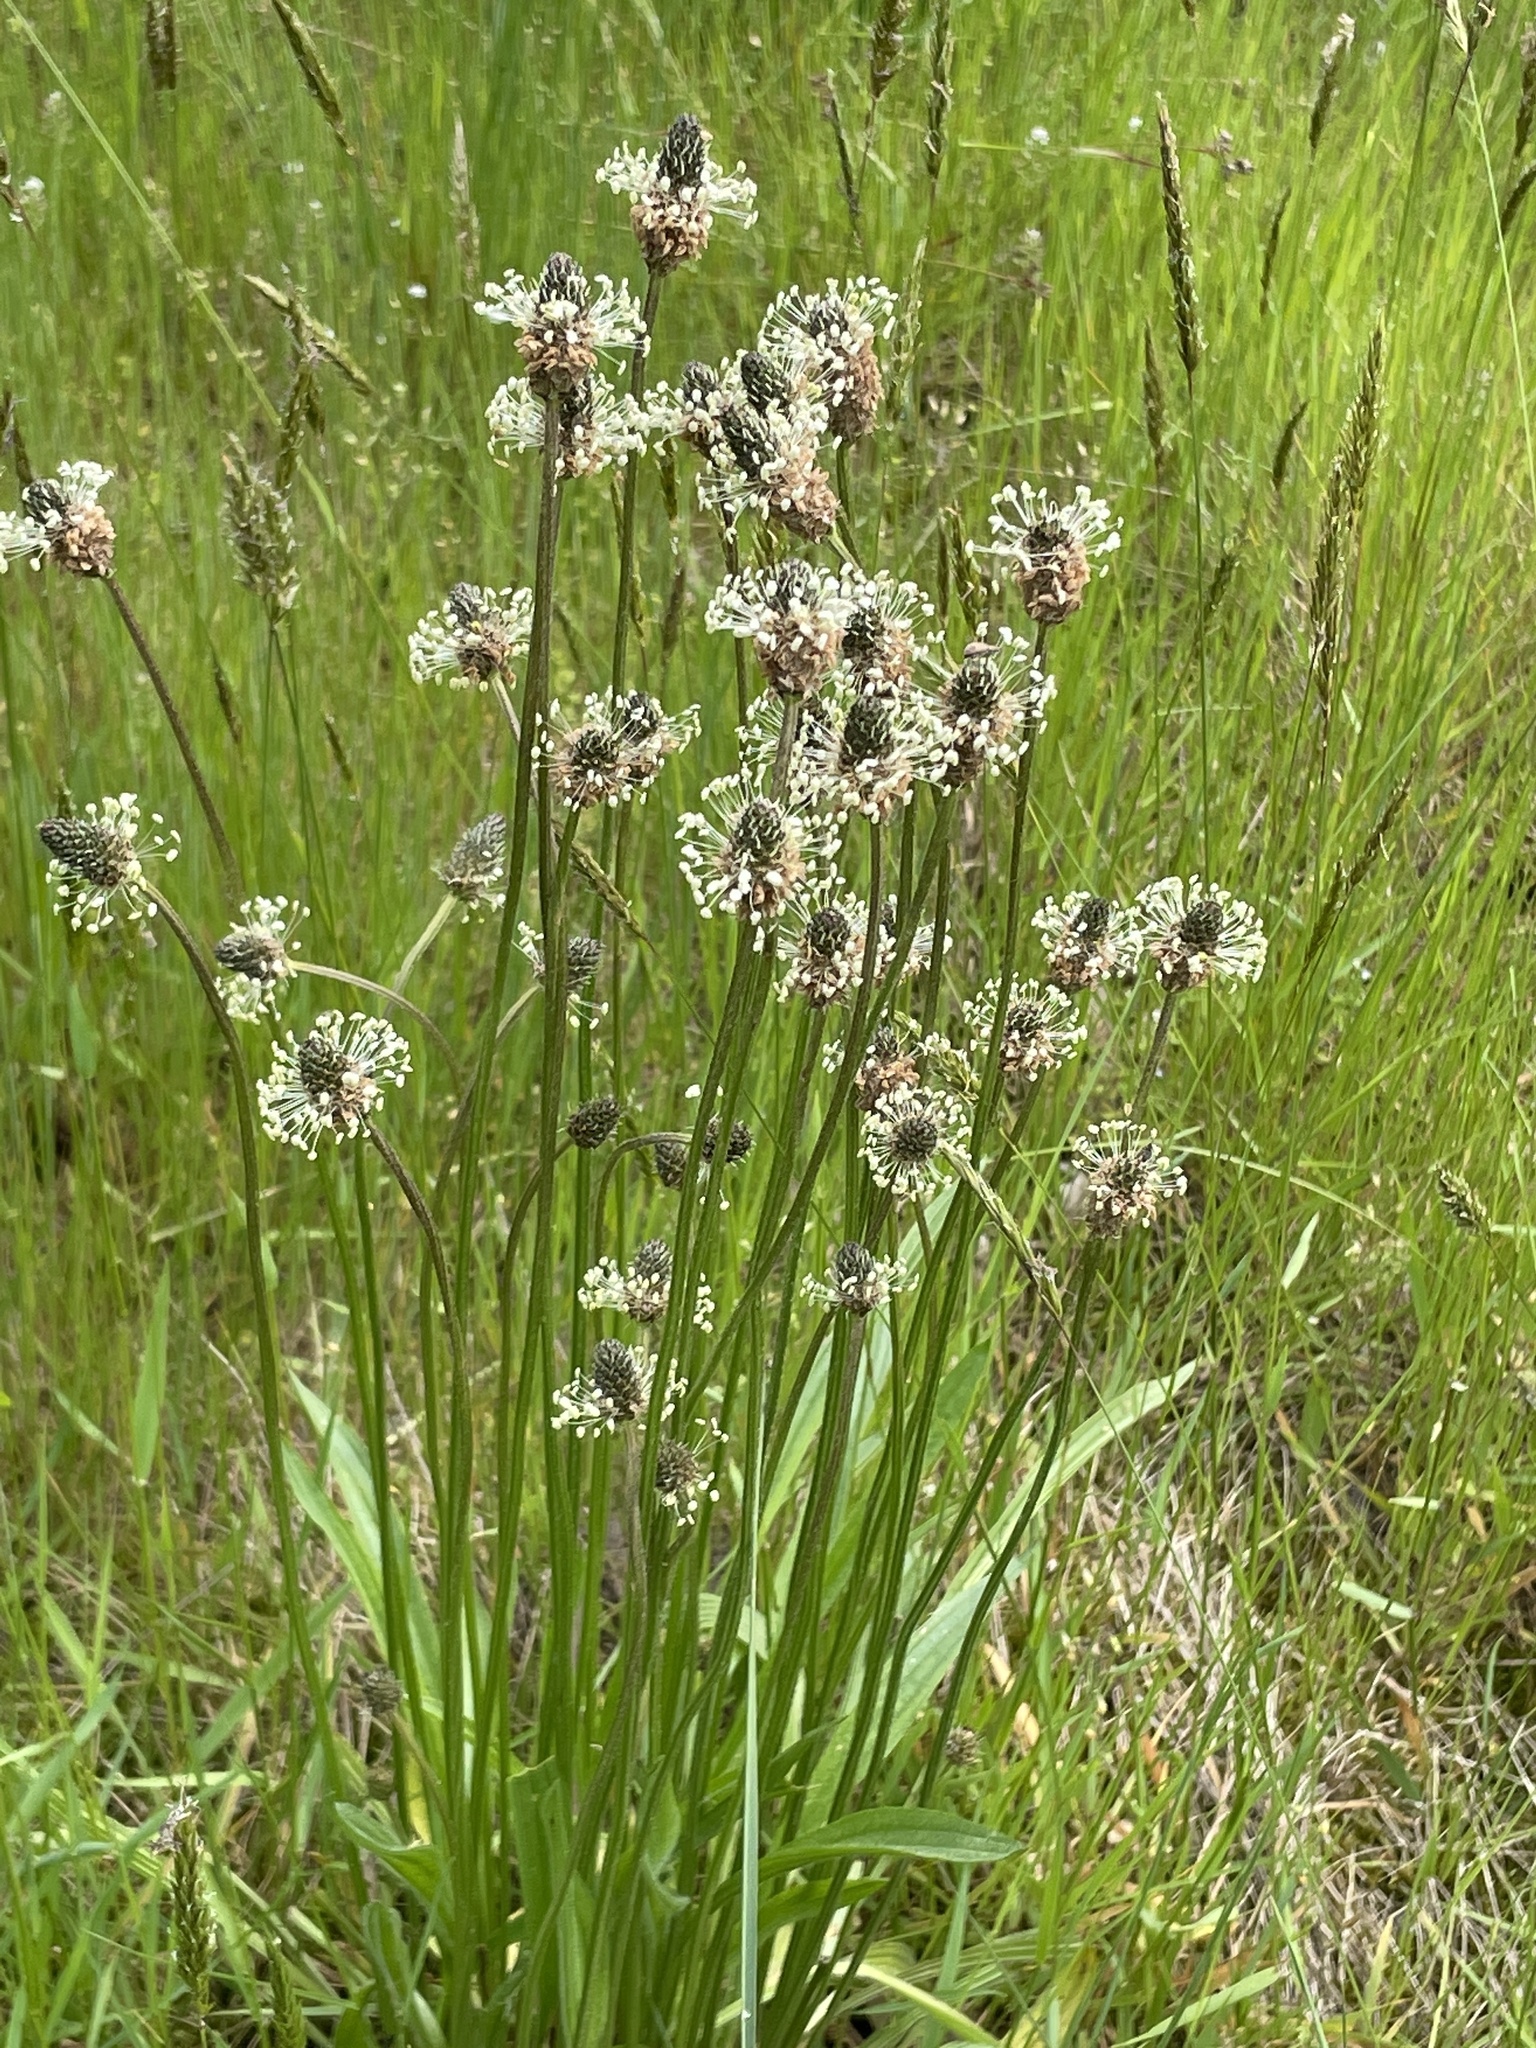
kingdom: Plantae
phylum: Tracheophyta
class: Magnoliopsida
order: Lamiales
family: Plantaginaceae
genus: Plantago
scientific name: Plantago lanceolata
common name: Ribwort plantain
